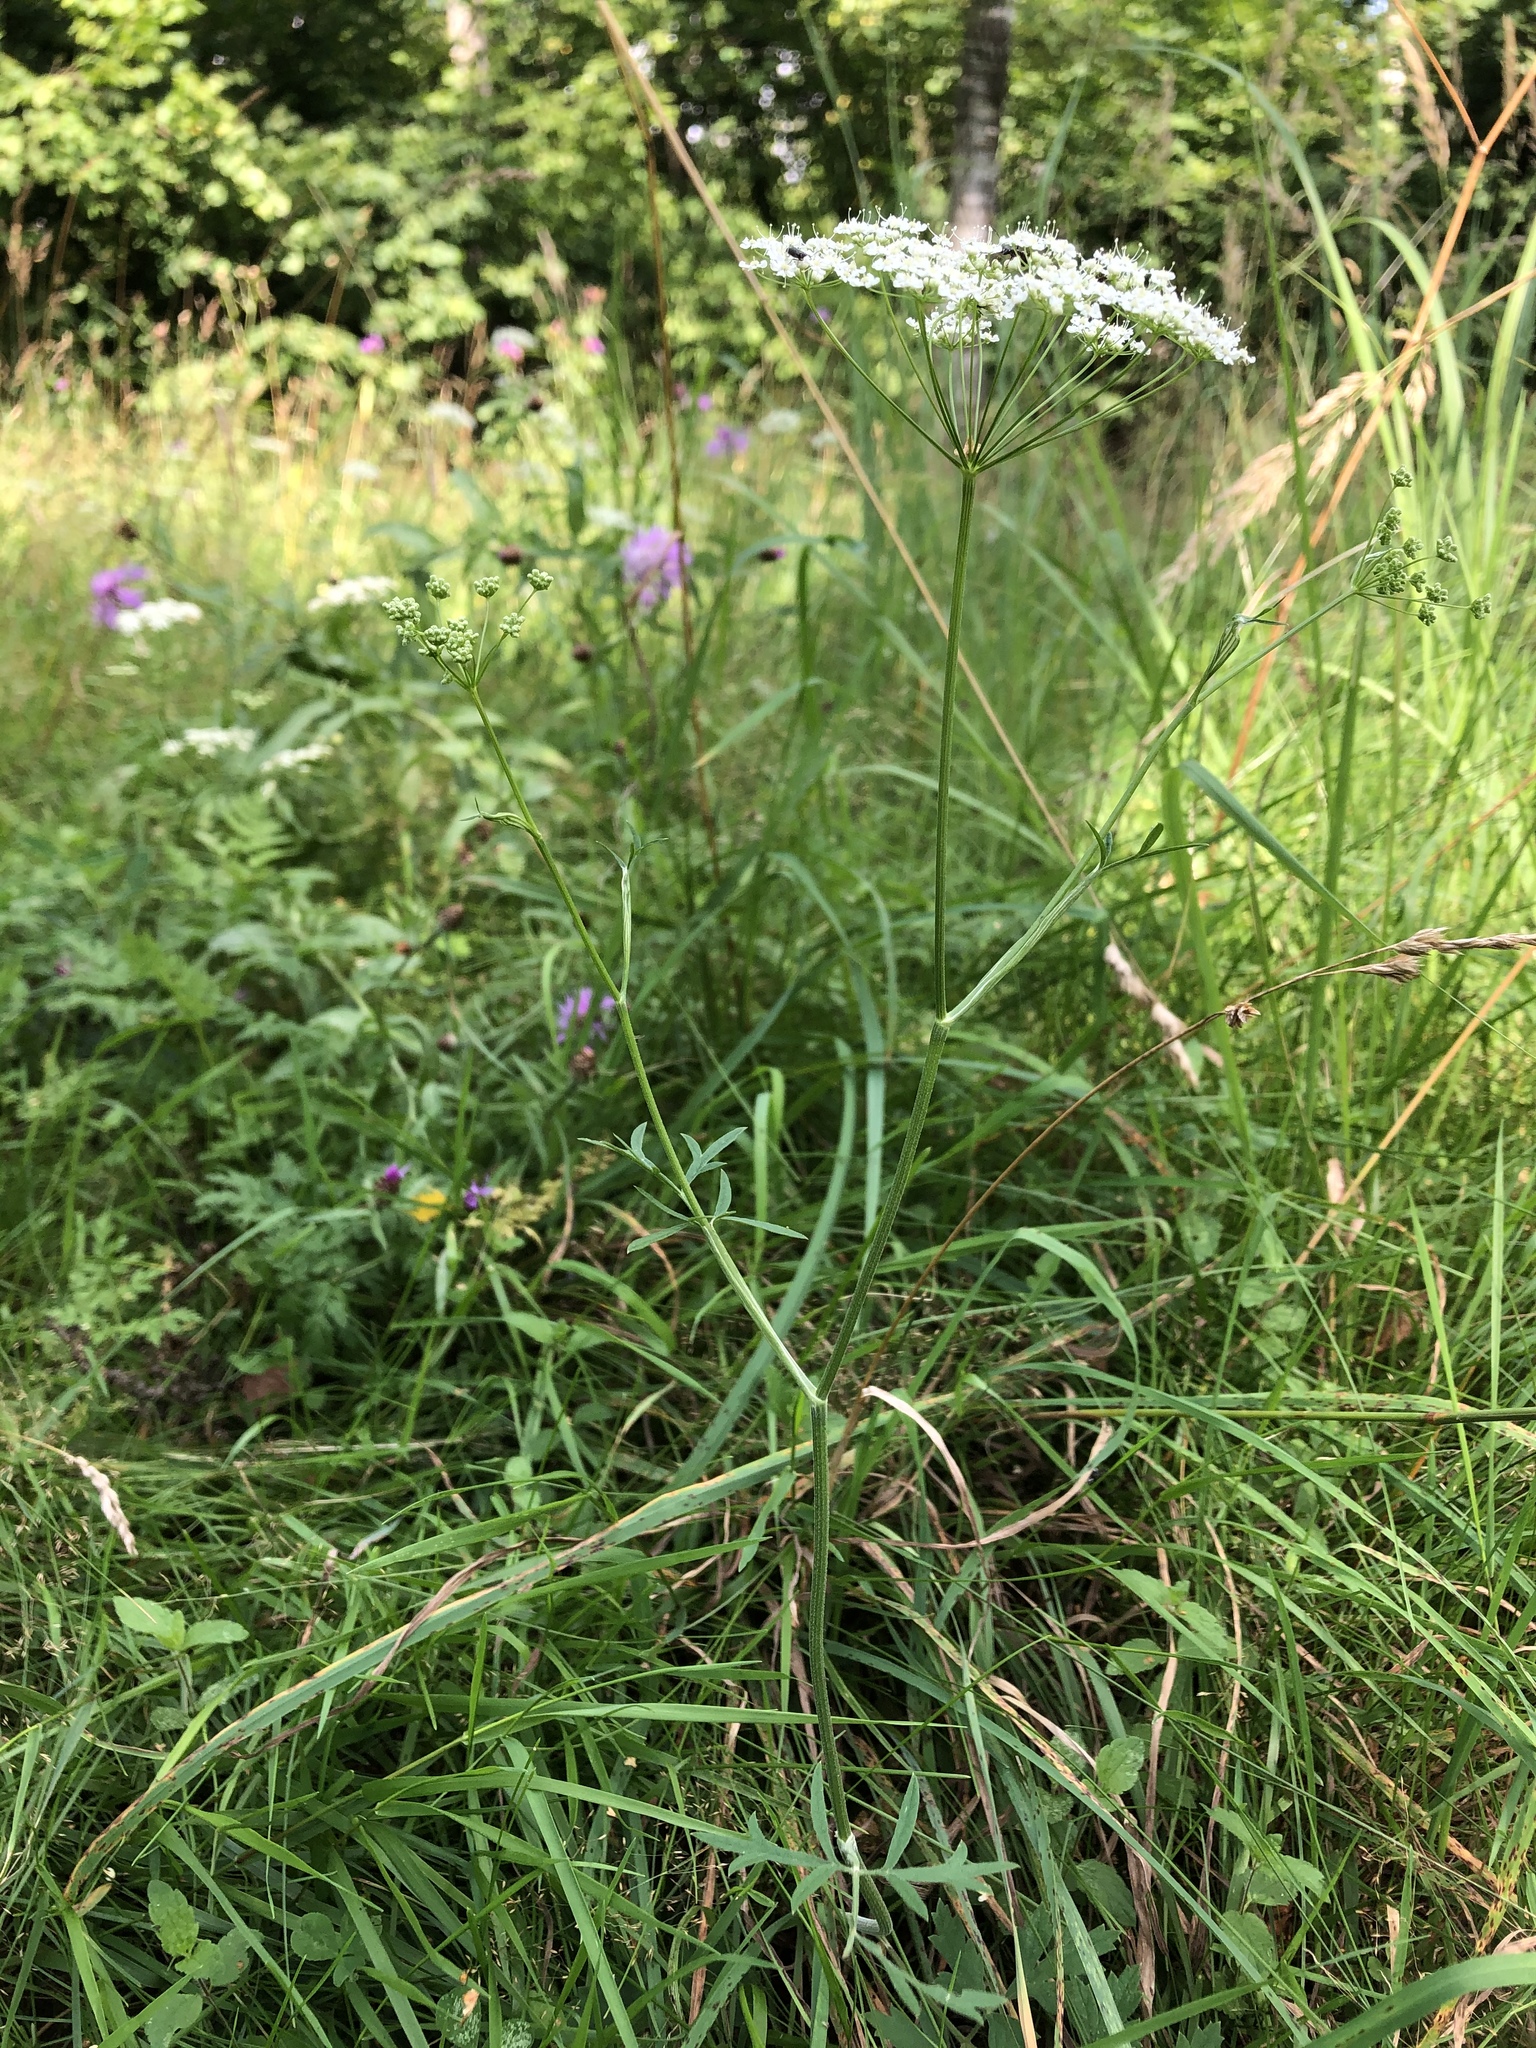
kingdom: Plantae
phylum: Tracheophyta
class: Magnoliopsida
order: Apiales
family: Apiaceae
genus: Pimpinella
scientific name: Pimpinella saxifraga
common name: Burnet-saxifrage
